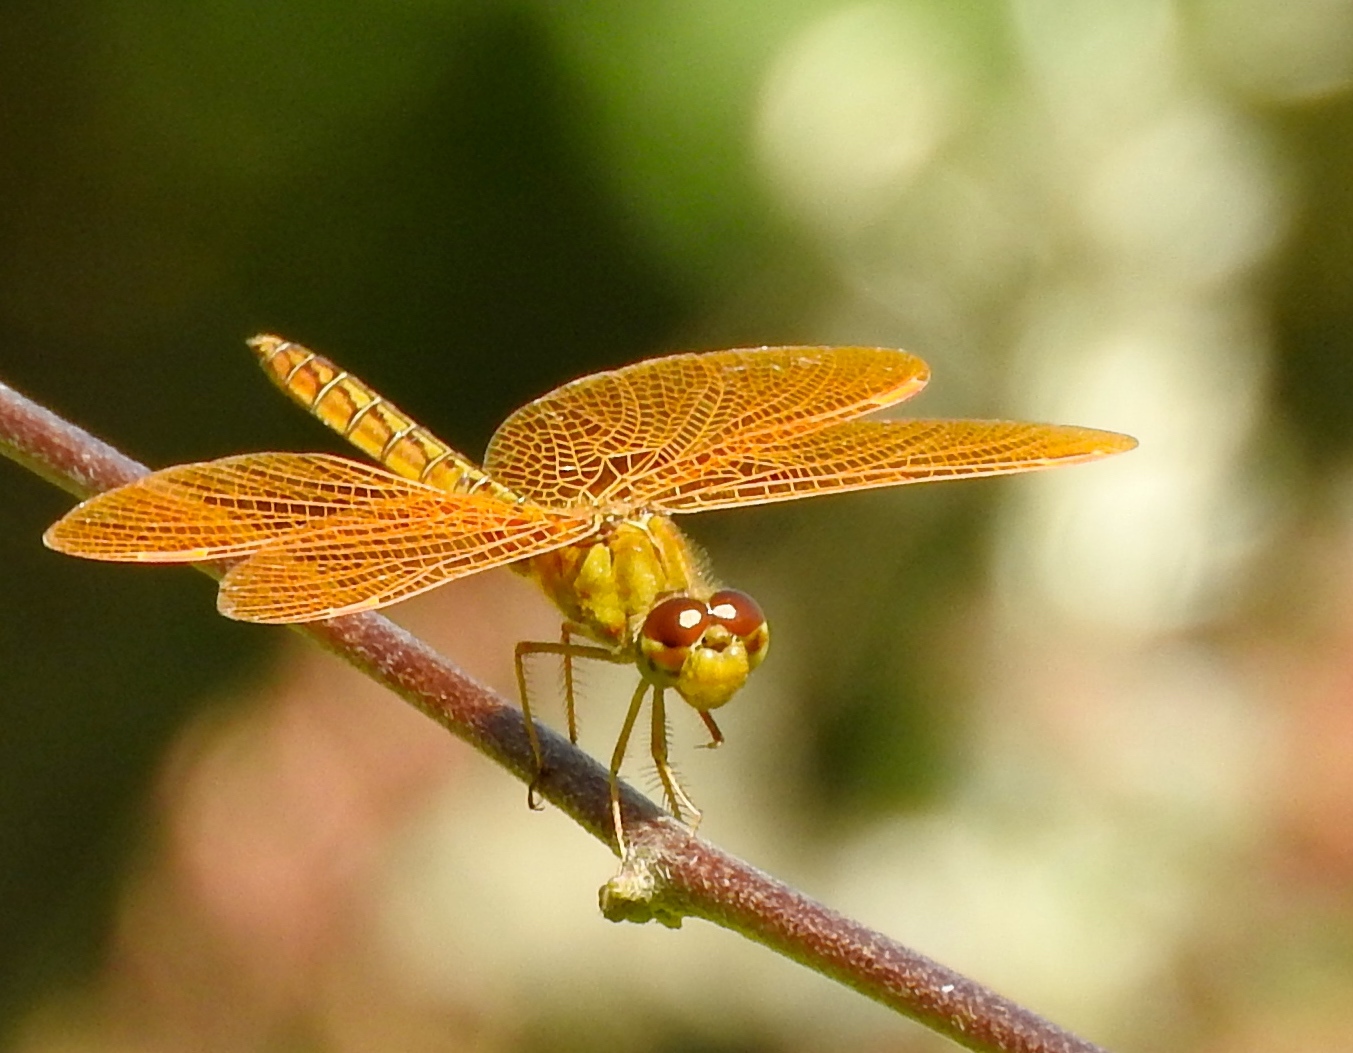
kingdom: Animalia
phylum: Arthropoda
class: Insecta
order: Odonata
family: Libellulidae
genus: Perithemis
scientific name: Perithemis intensa
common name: Mexican amberwing
